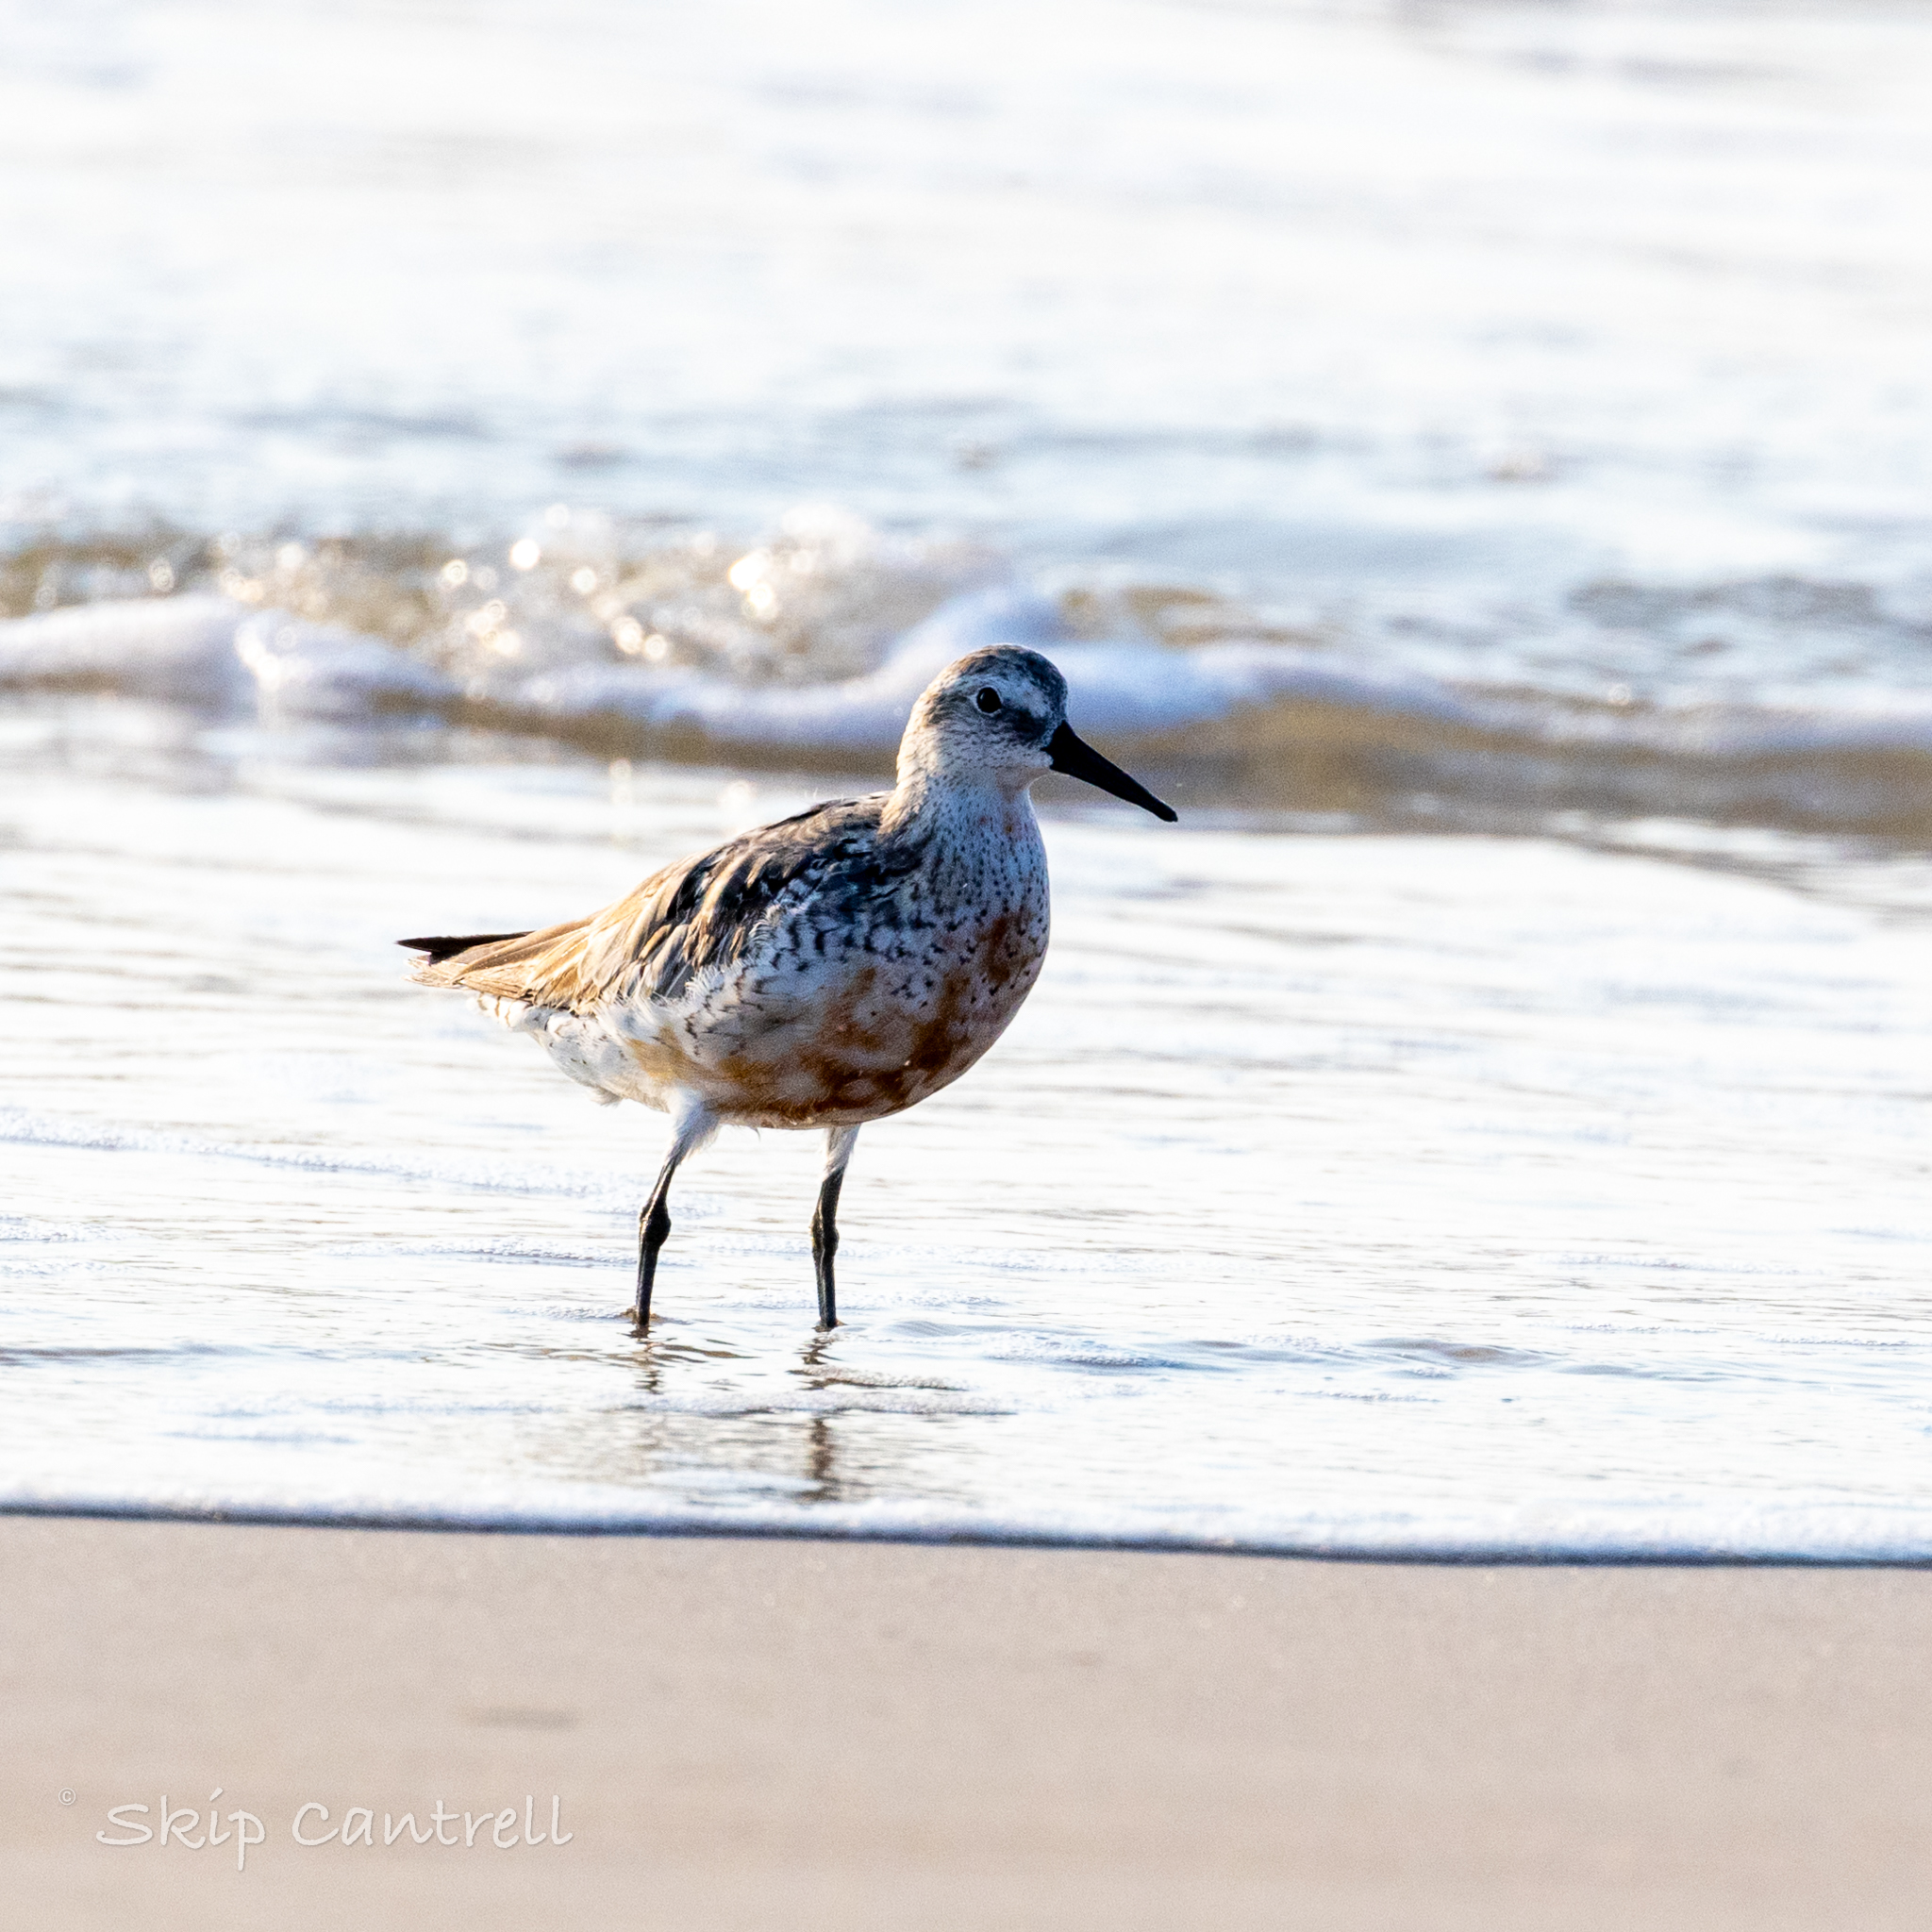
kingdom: Animalia
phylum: Chordata
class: Aves
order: Charadriiformes
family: Scolopacidae
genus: Calidris
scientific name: Calidris canutus
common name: Red knot
